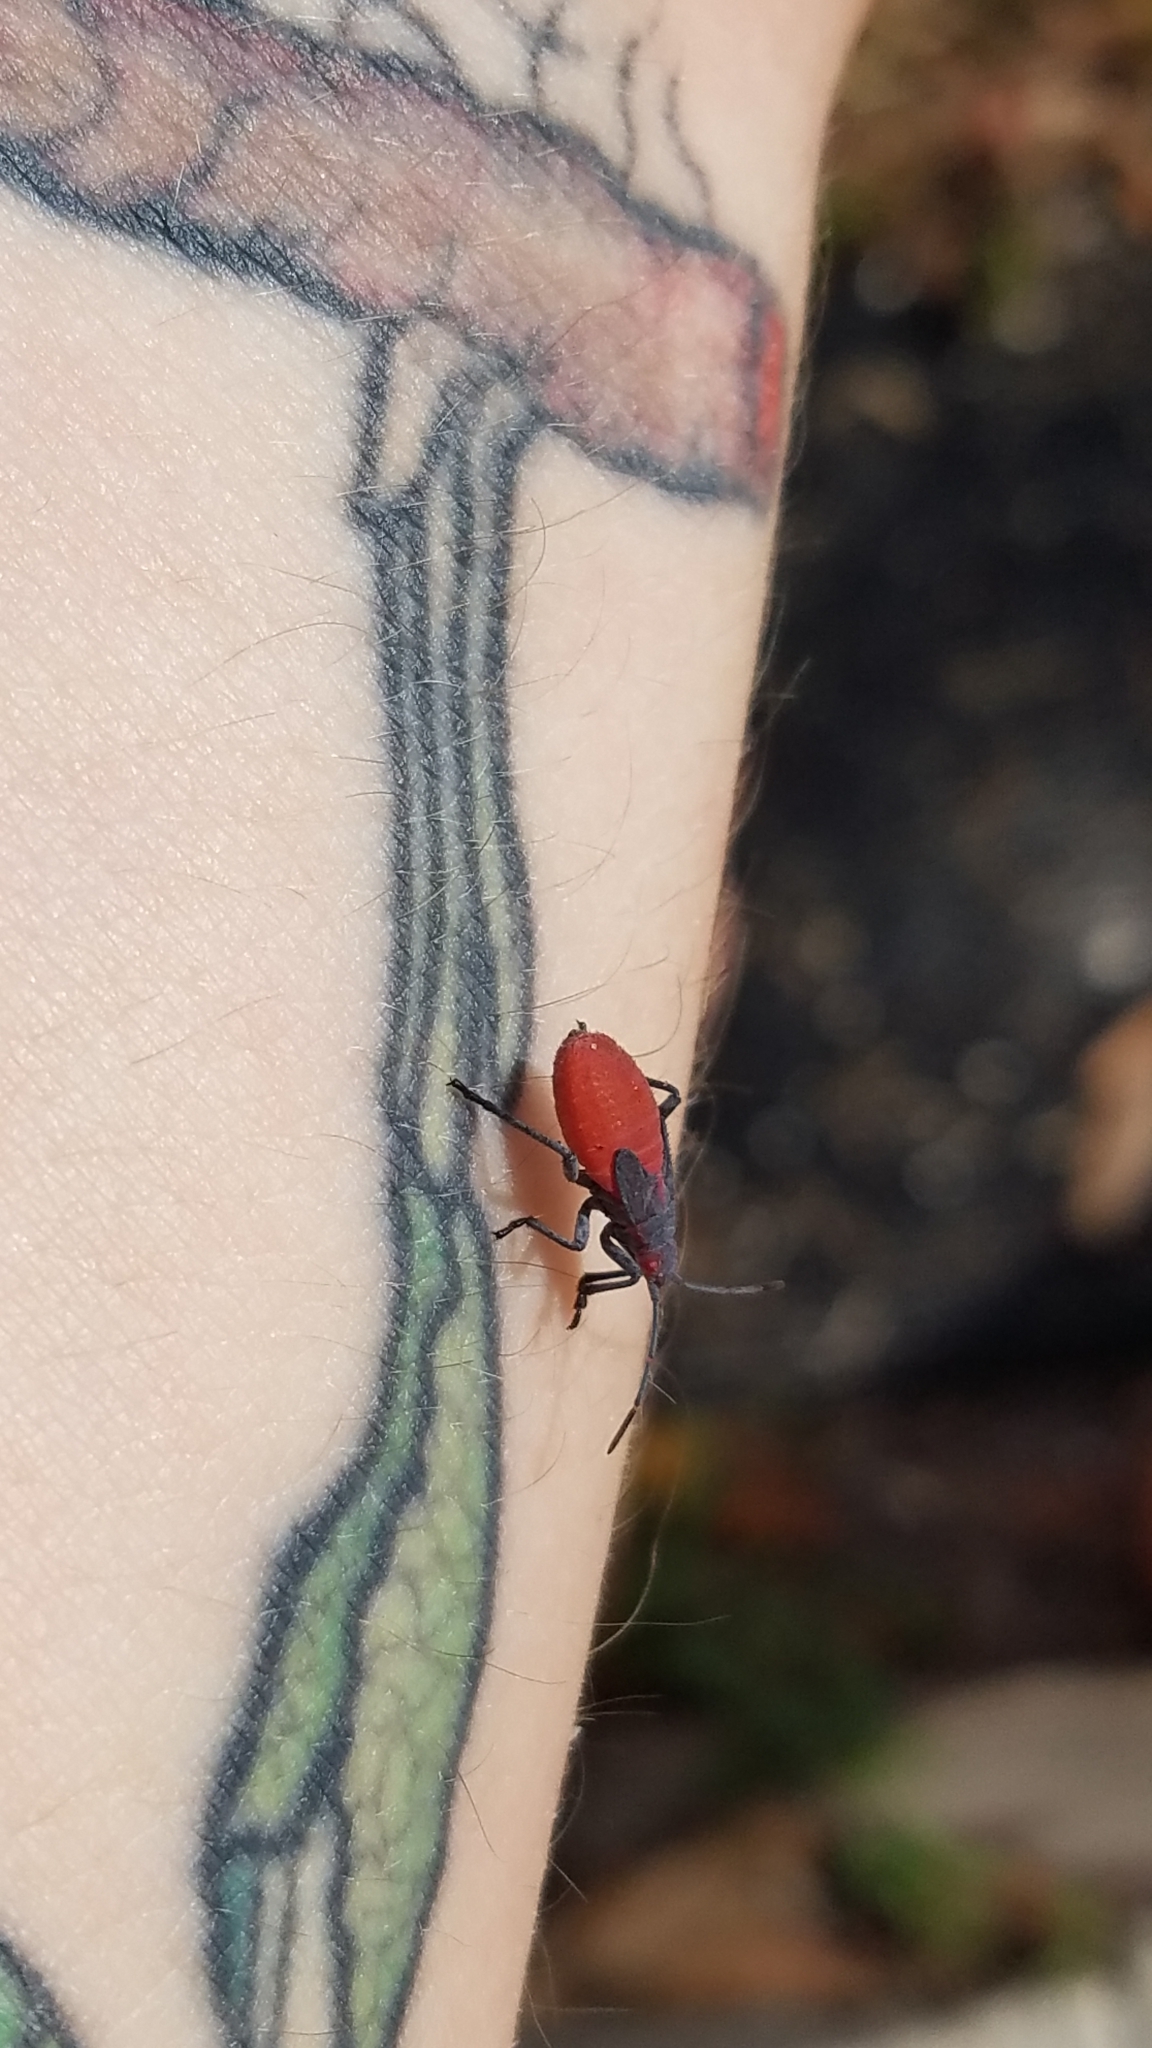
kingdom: Animalia
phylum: Arthropoda
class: Insecta
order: Hemiptera
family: Rhopalidae
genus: Jadera
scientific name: Jadera haematoloma
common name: Red-shouldered bug
